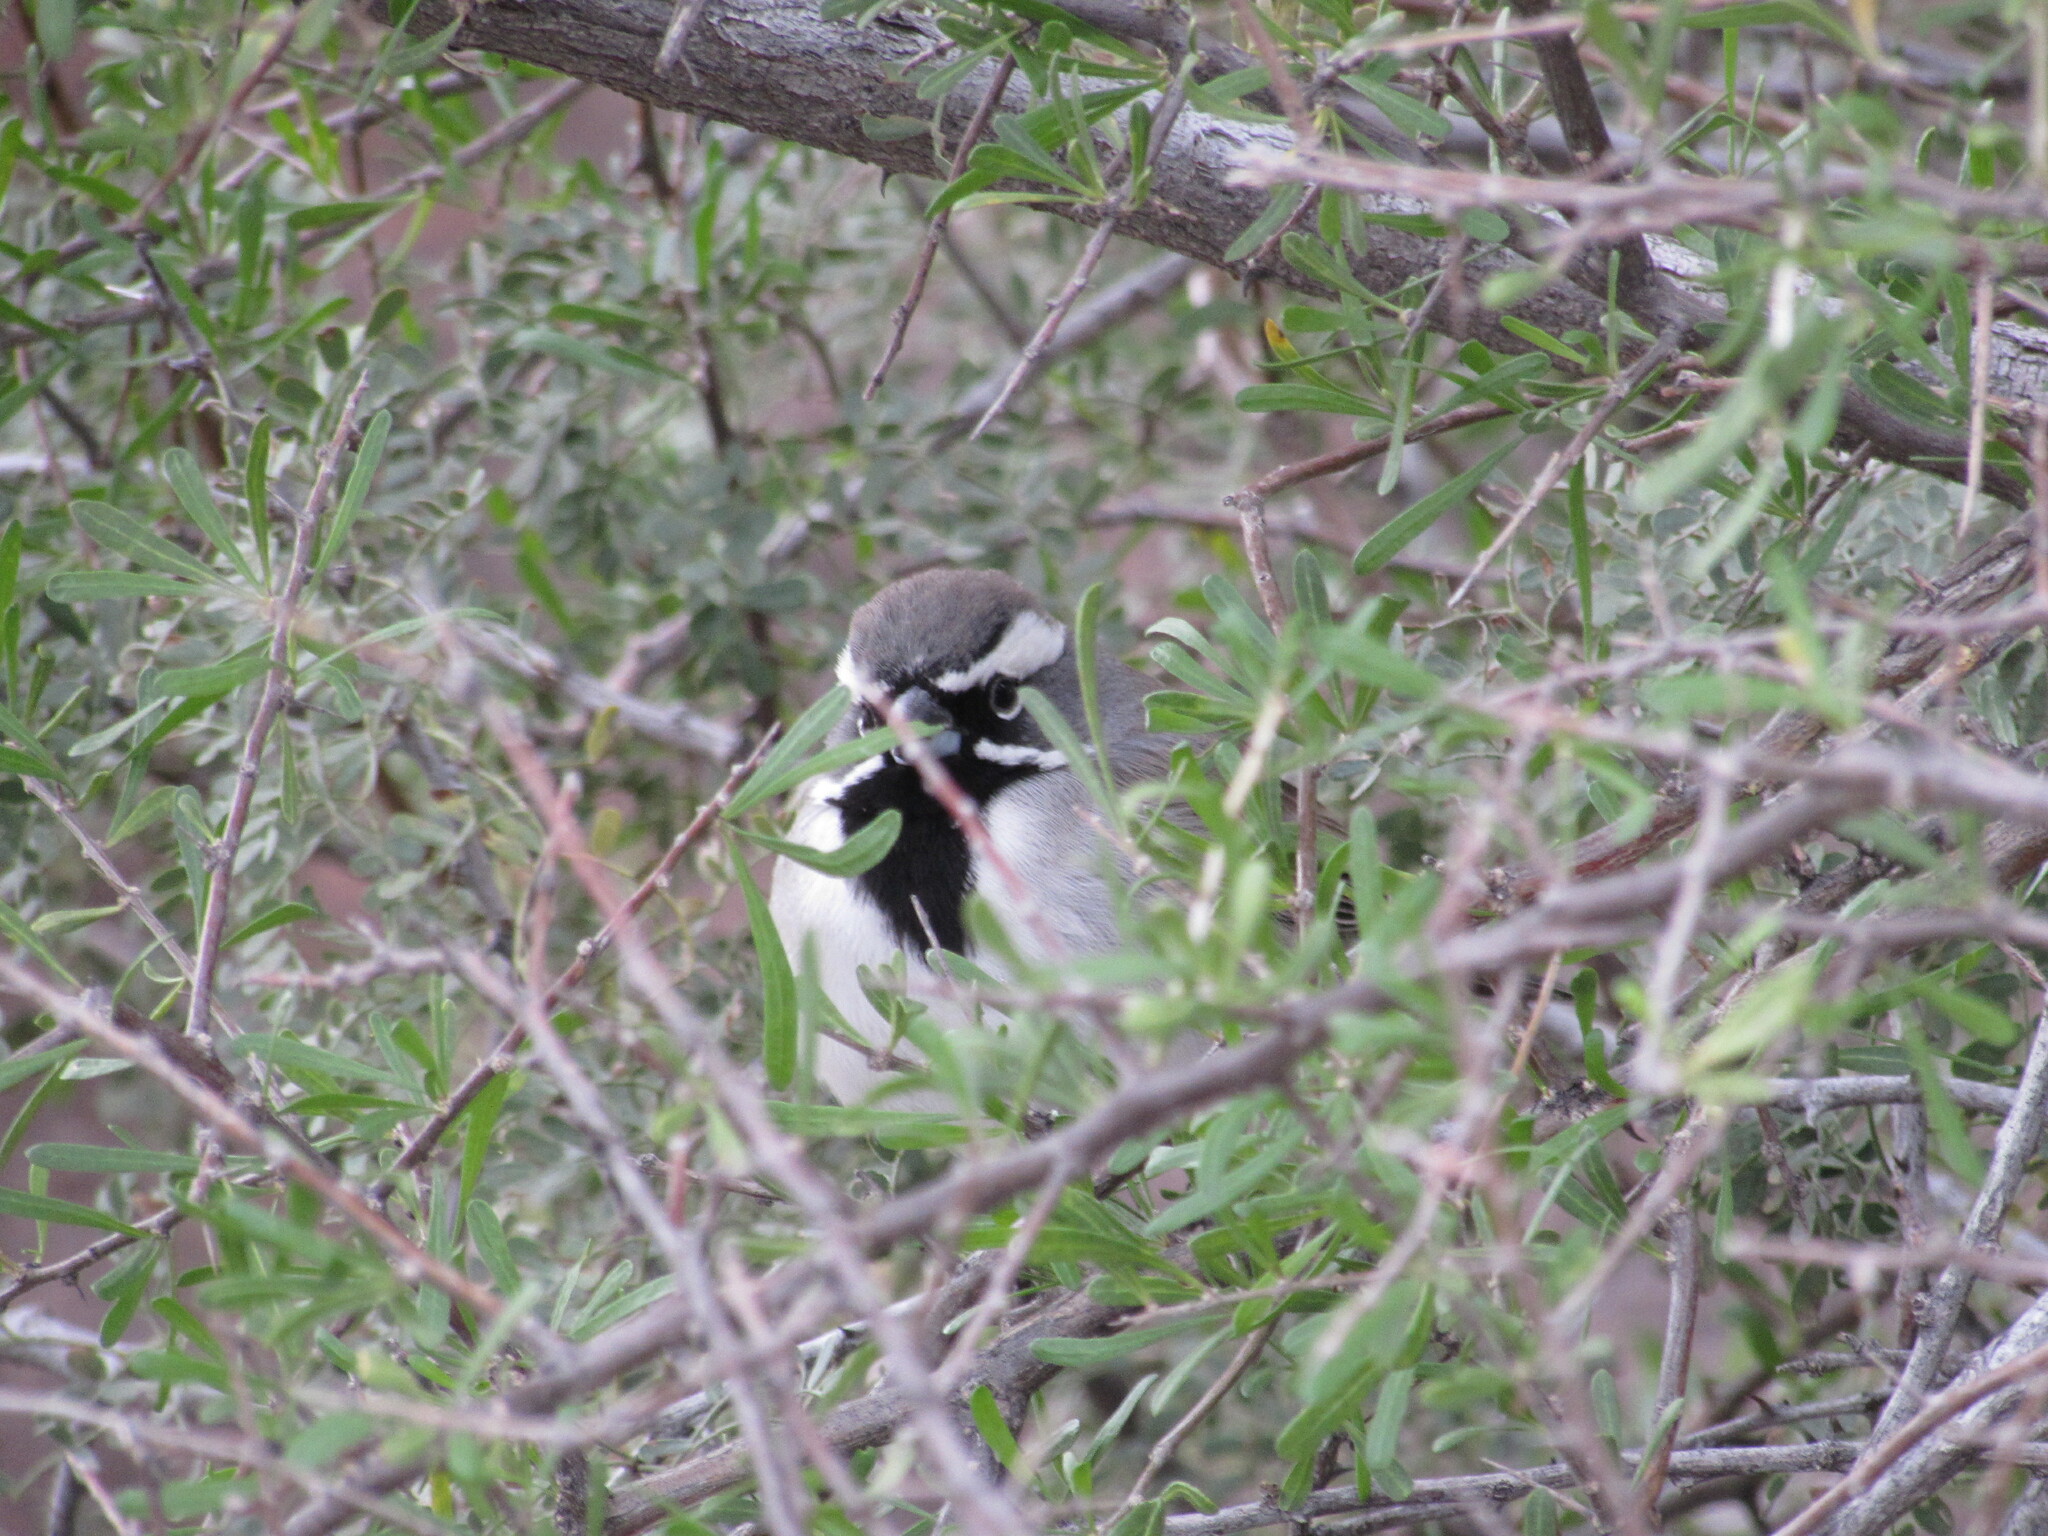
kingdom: Animalia
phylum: Chordata
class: Aves
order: Passeriformes
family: Passerellidae
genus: Amphispiza
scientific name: Amphispiza bilineata
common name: Black-throated sparrow
